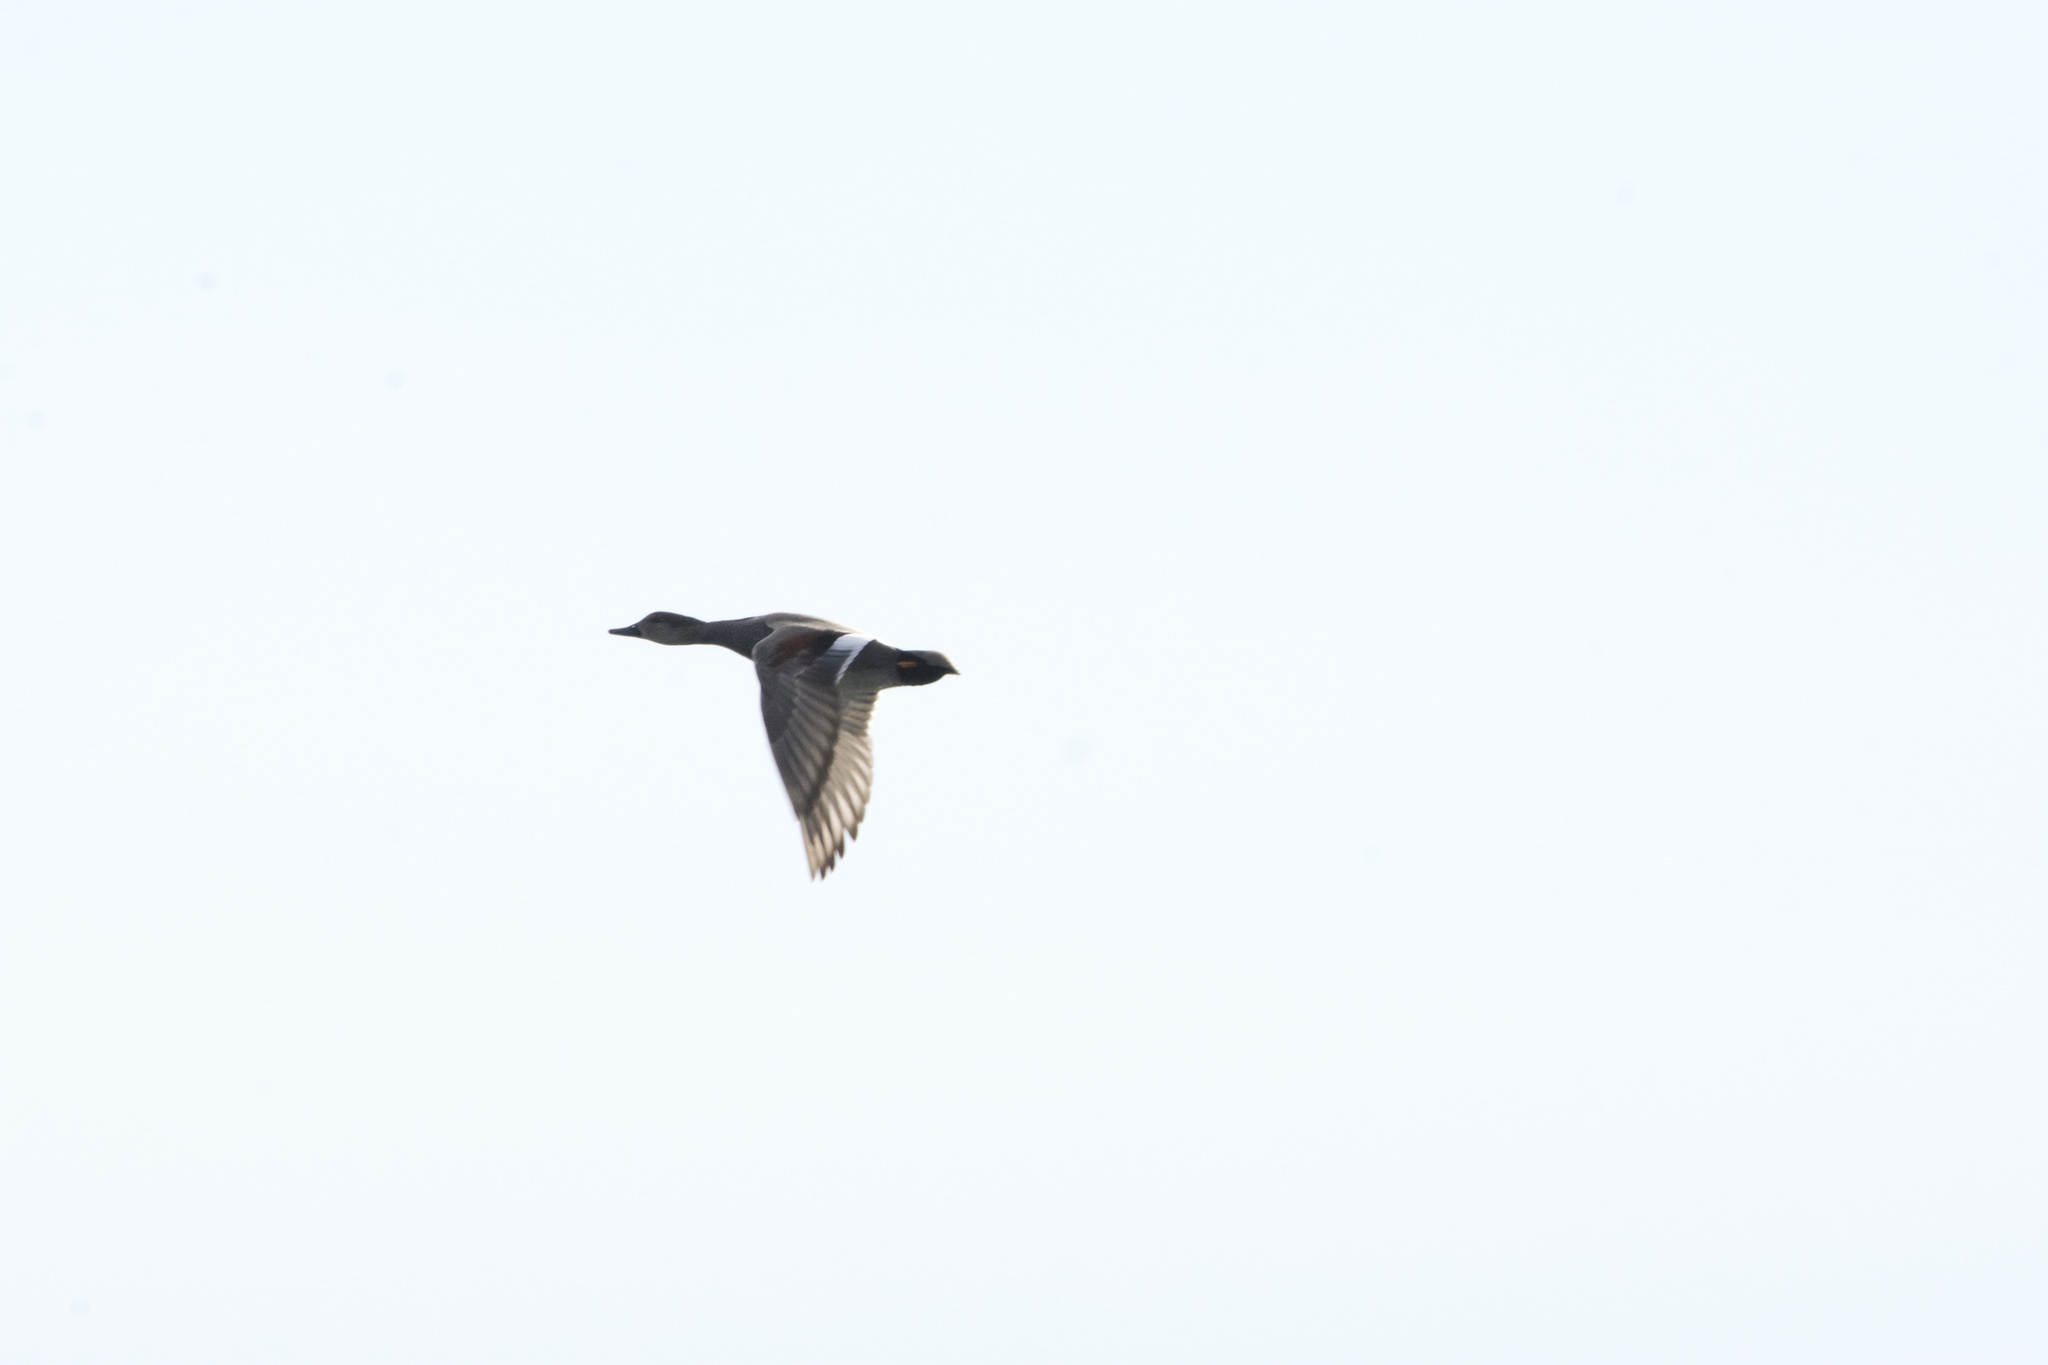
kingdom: Animalia
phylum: Chordata
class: Aves
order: Anseriformes
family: Anatidae
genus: Mareca
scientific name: Mareca strepera
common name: Gadwall
